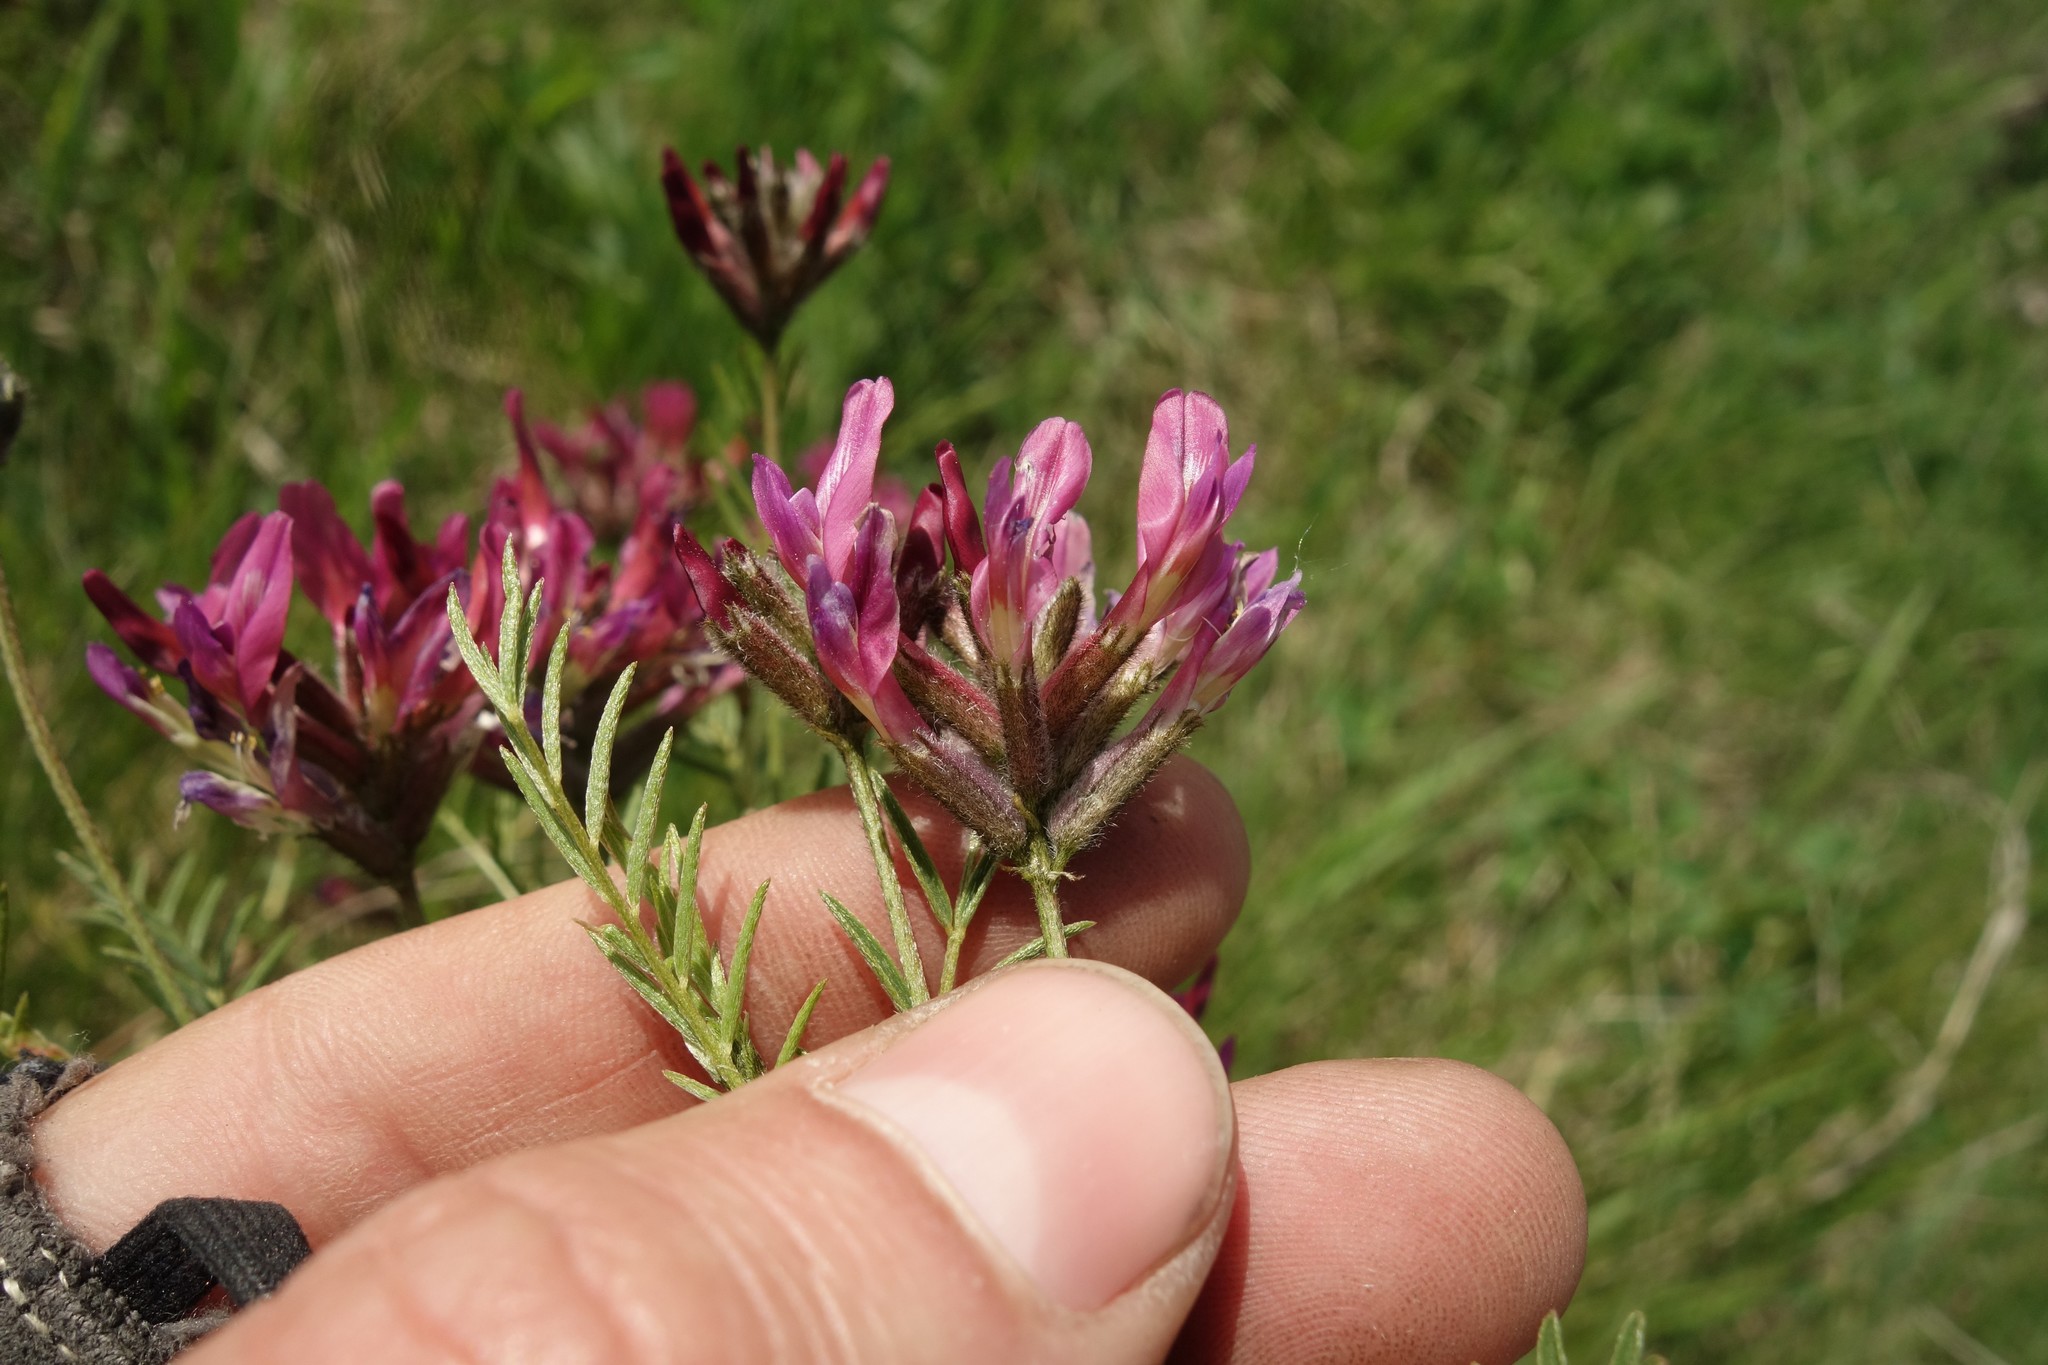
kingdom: Plantae
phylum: Tracheophyta
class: Magnoliopsida
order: Fabales
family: Fabaceae
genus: Astragalus
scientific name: Astragalus cornutus
